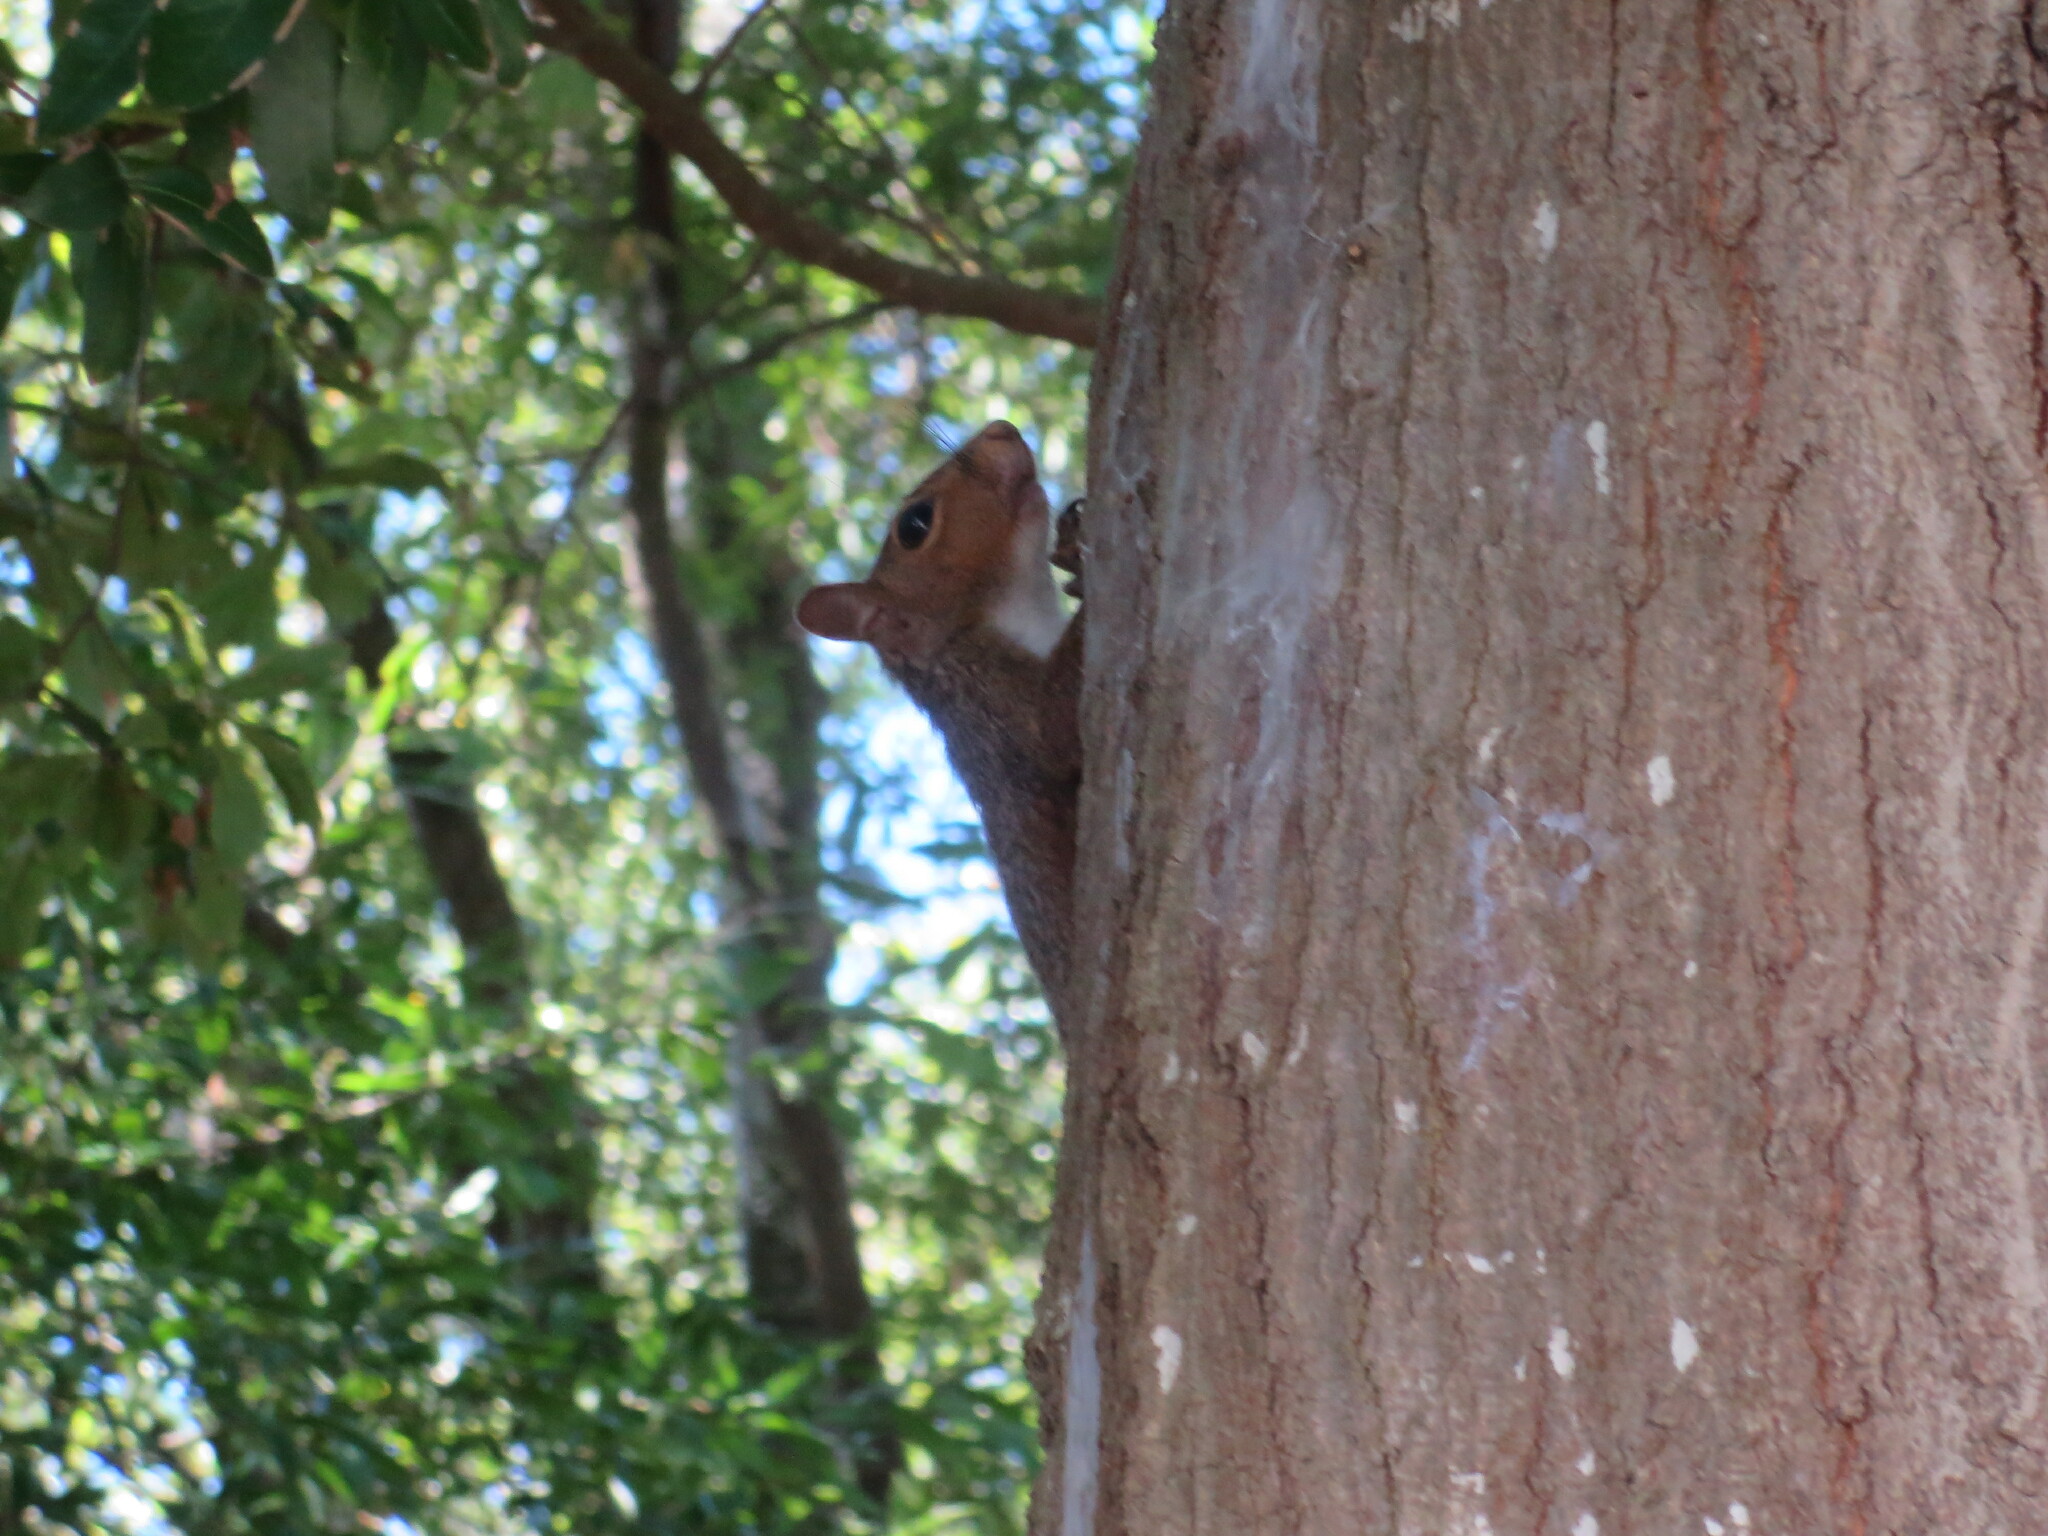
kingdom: Animalia
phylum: Chordata
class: Mammalia
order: Rodentia
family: Sciuridae
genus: Sciurus
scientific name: Sciurus carolinensis
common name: Eastern gray squirrel
